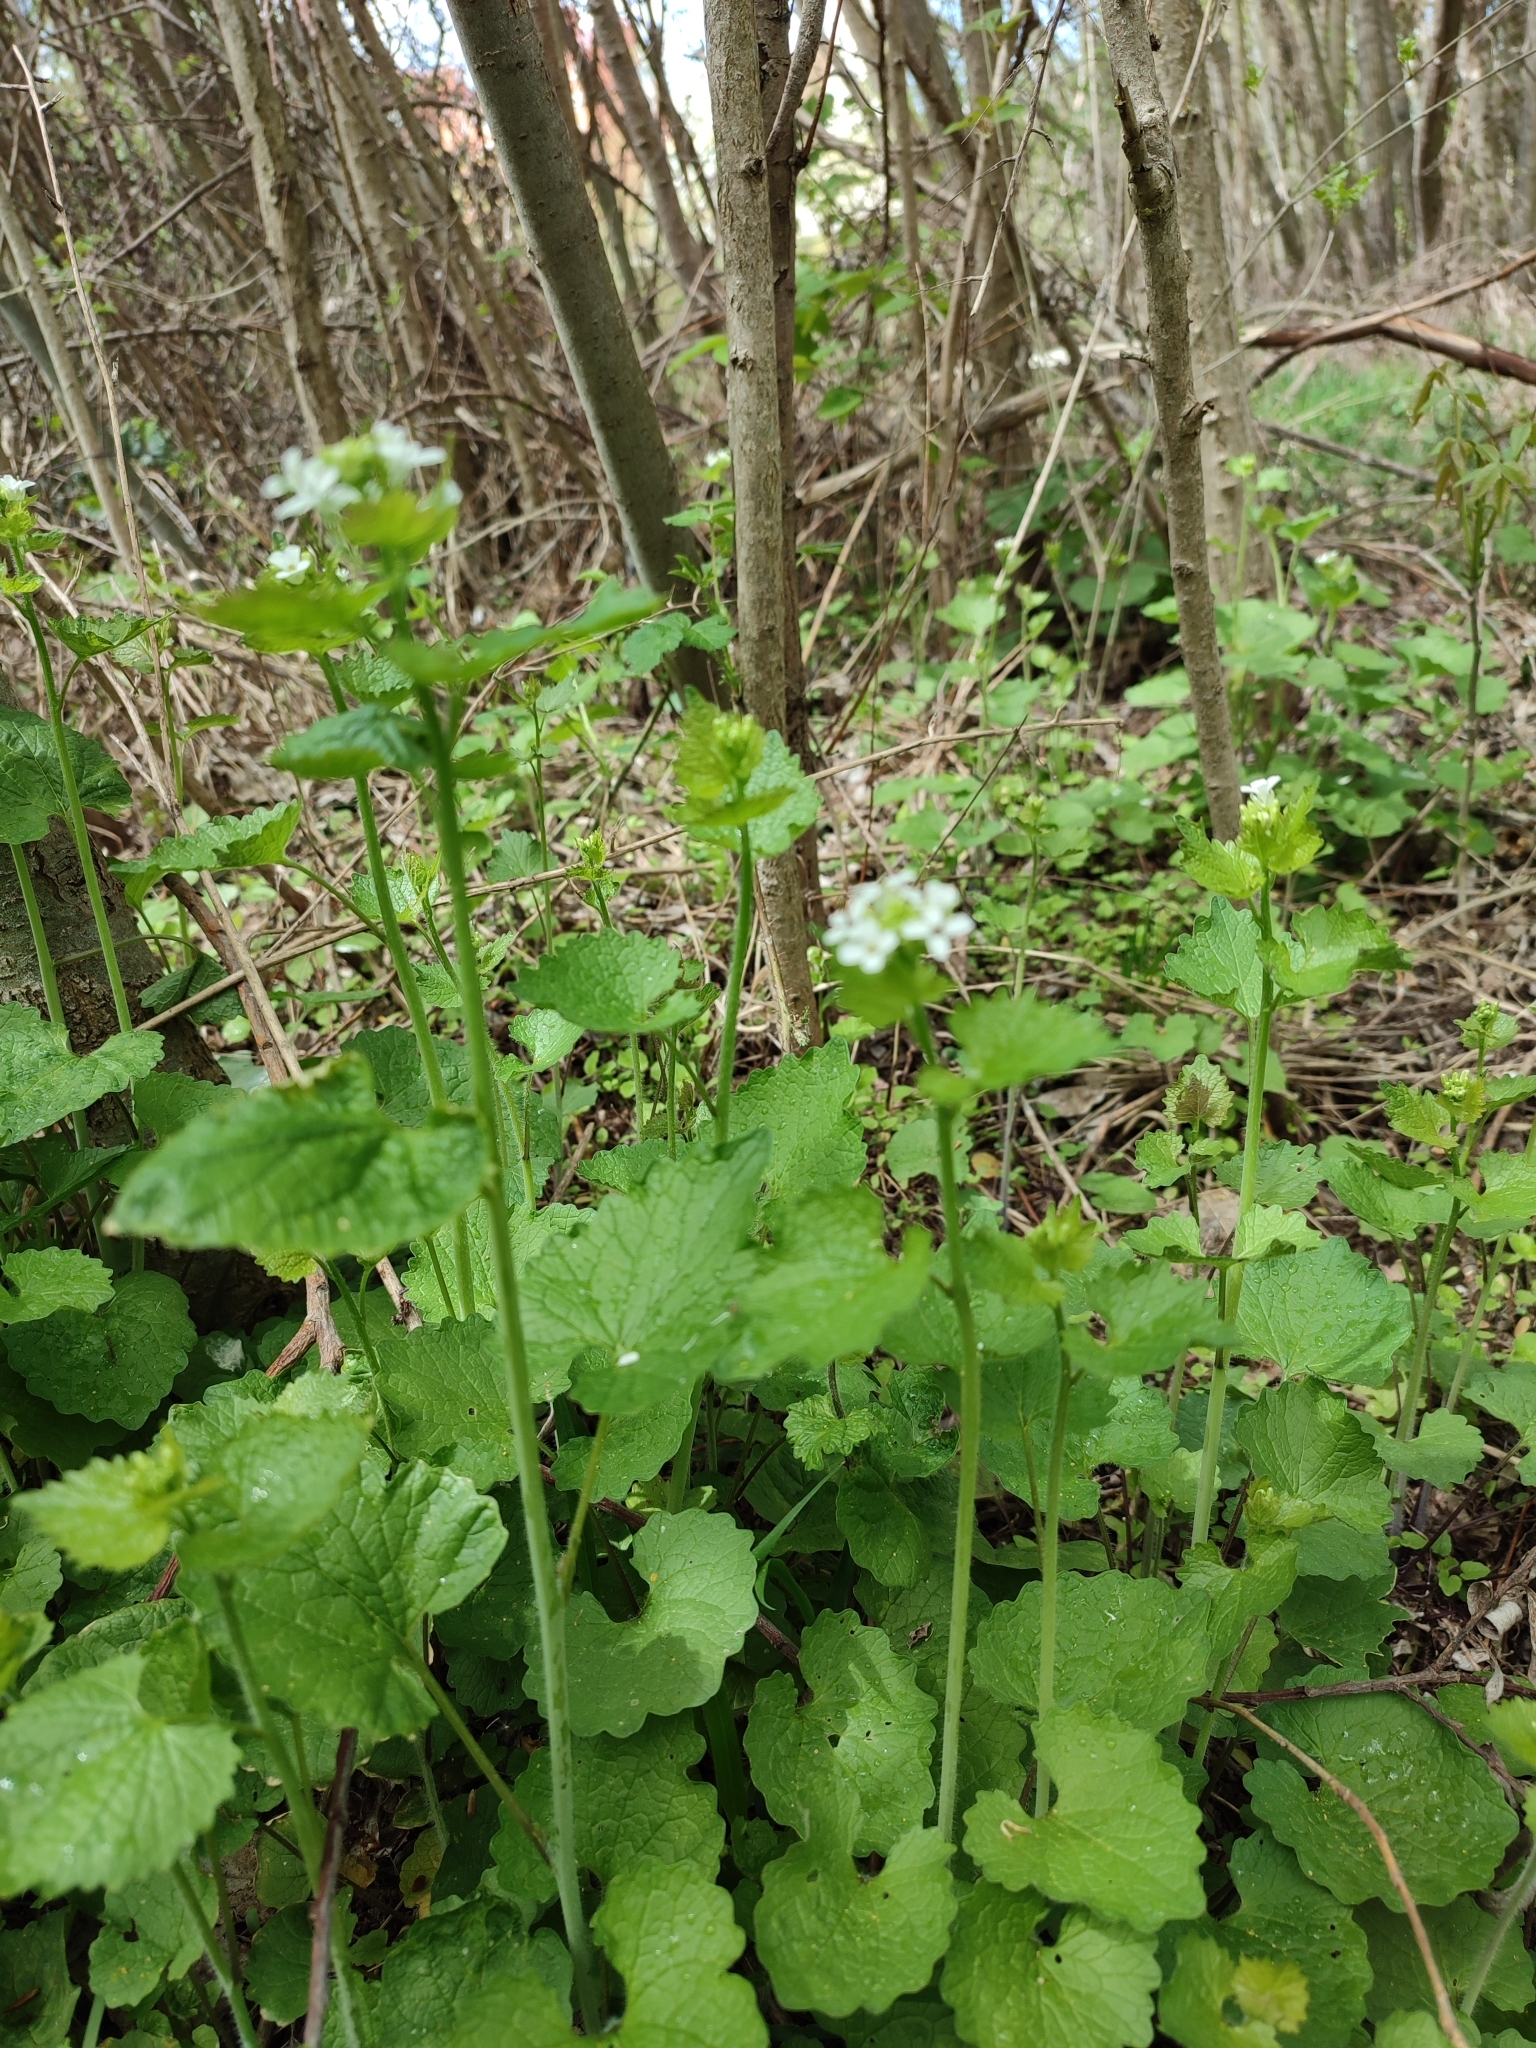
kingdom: Plantae
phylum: Tracheophyta
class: Magnoliopsida
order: Brassicales
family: Brassicaceae
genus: Alliaria
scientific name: Alliaria petiolata
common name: Garlic mustard
